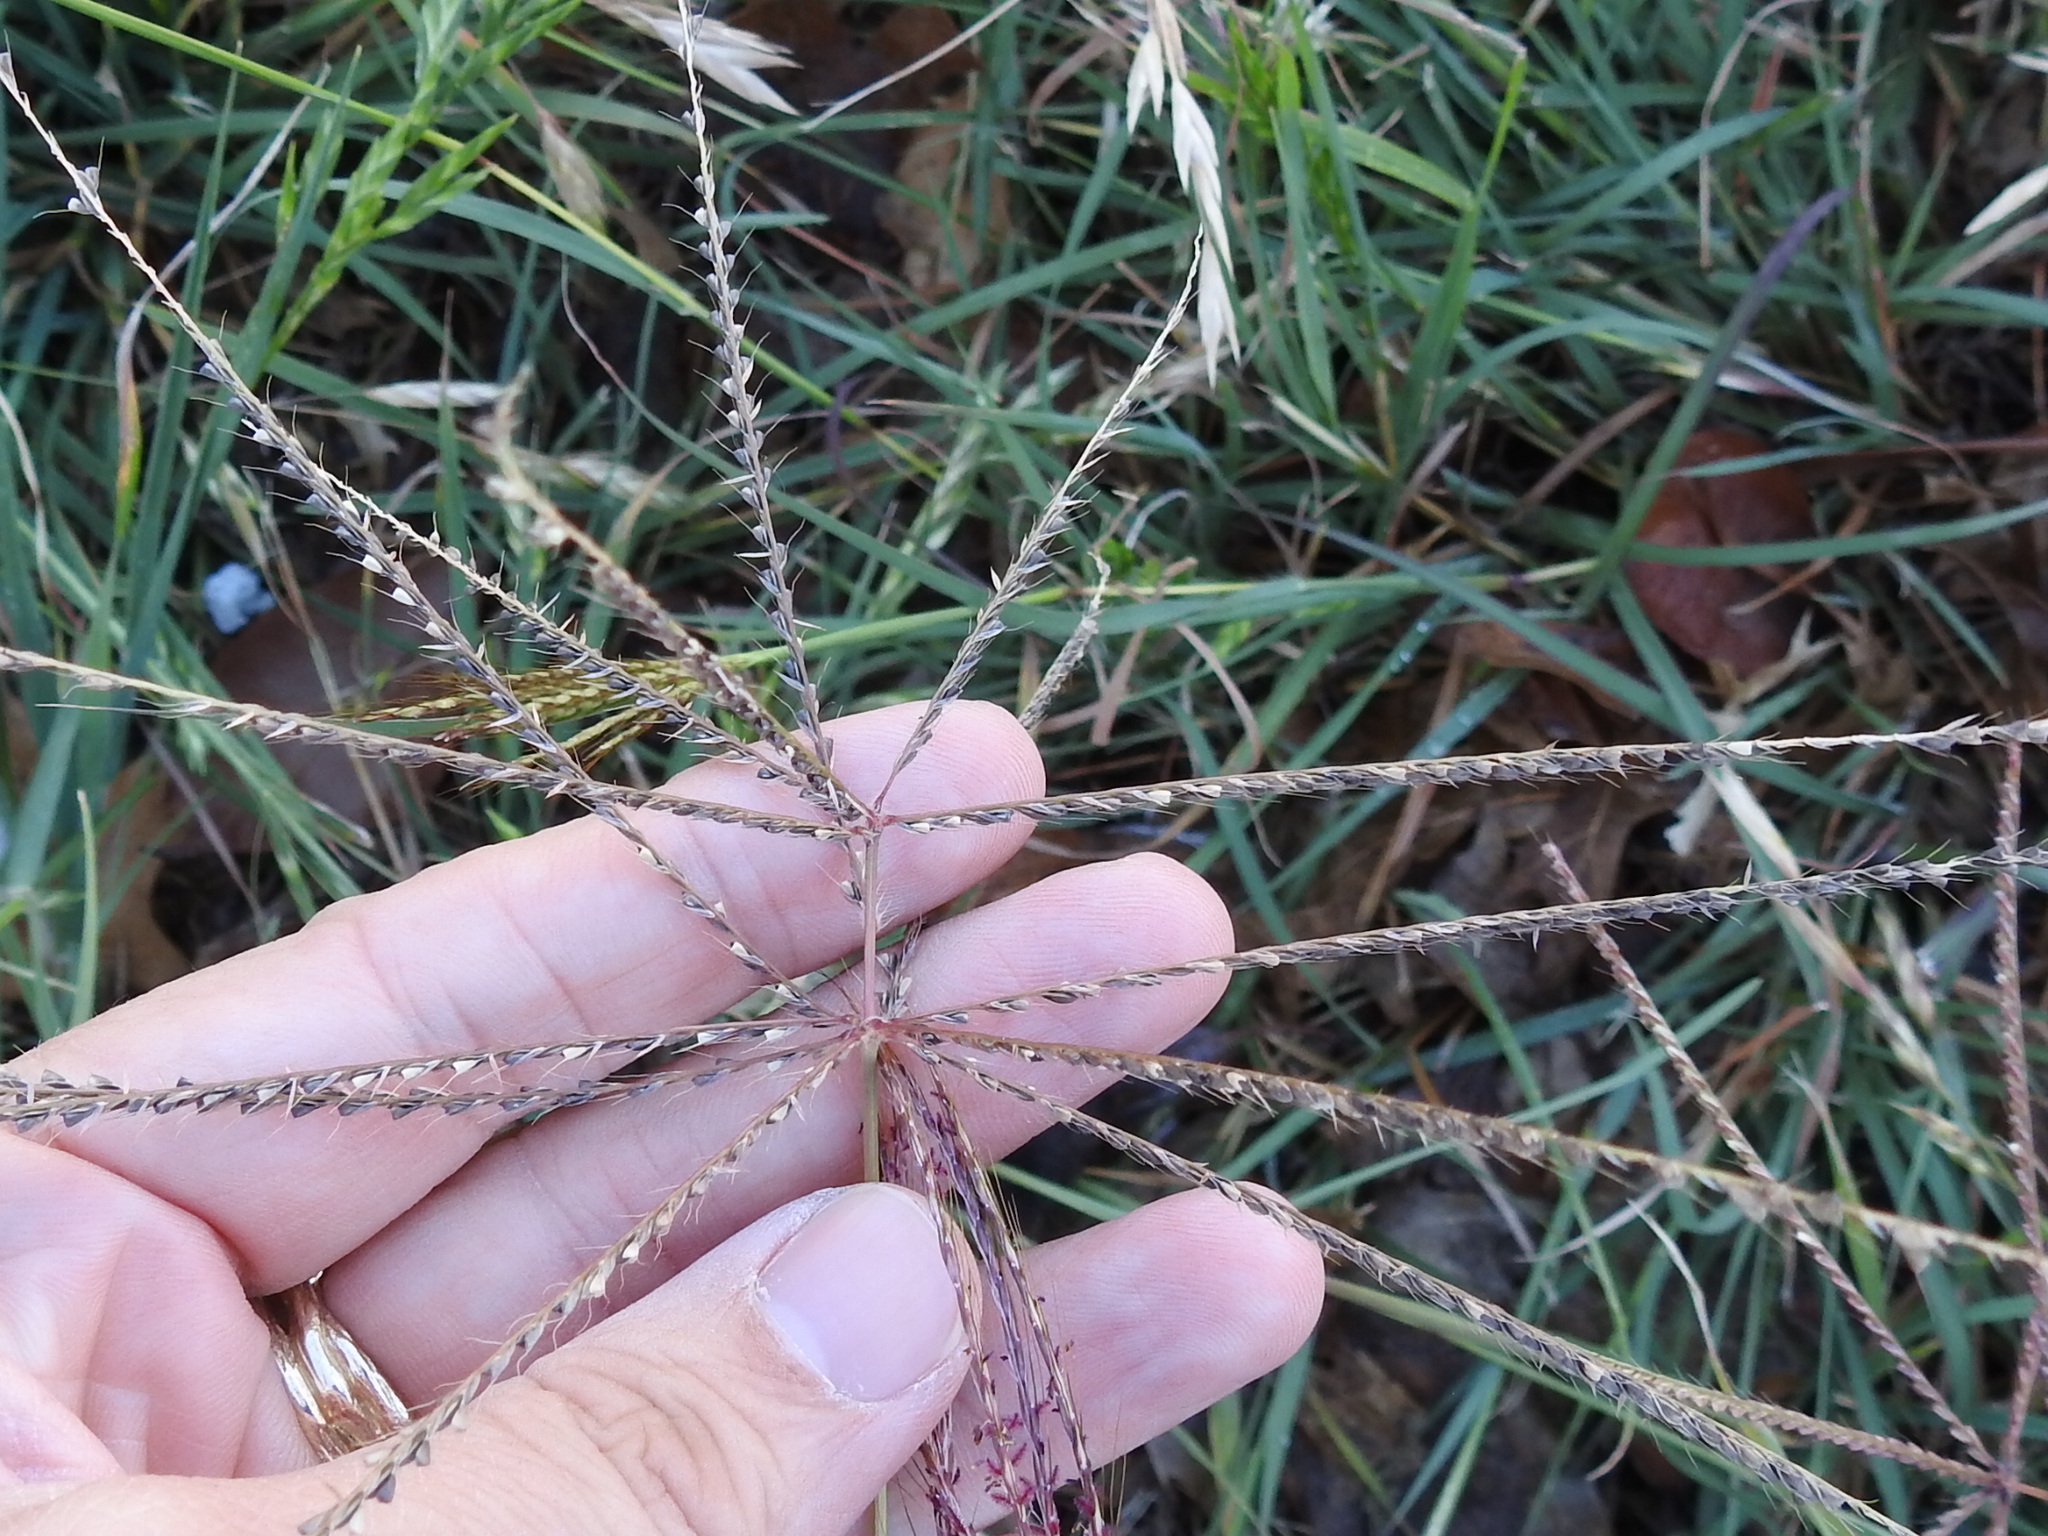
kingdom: Plantae
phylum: Tracheophyta
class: Liliopsida
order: Poales
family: Poaceae
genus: Chloris
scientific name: Chloris verticillata
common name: Tumble windmill grass
